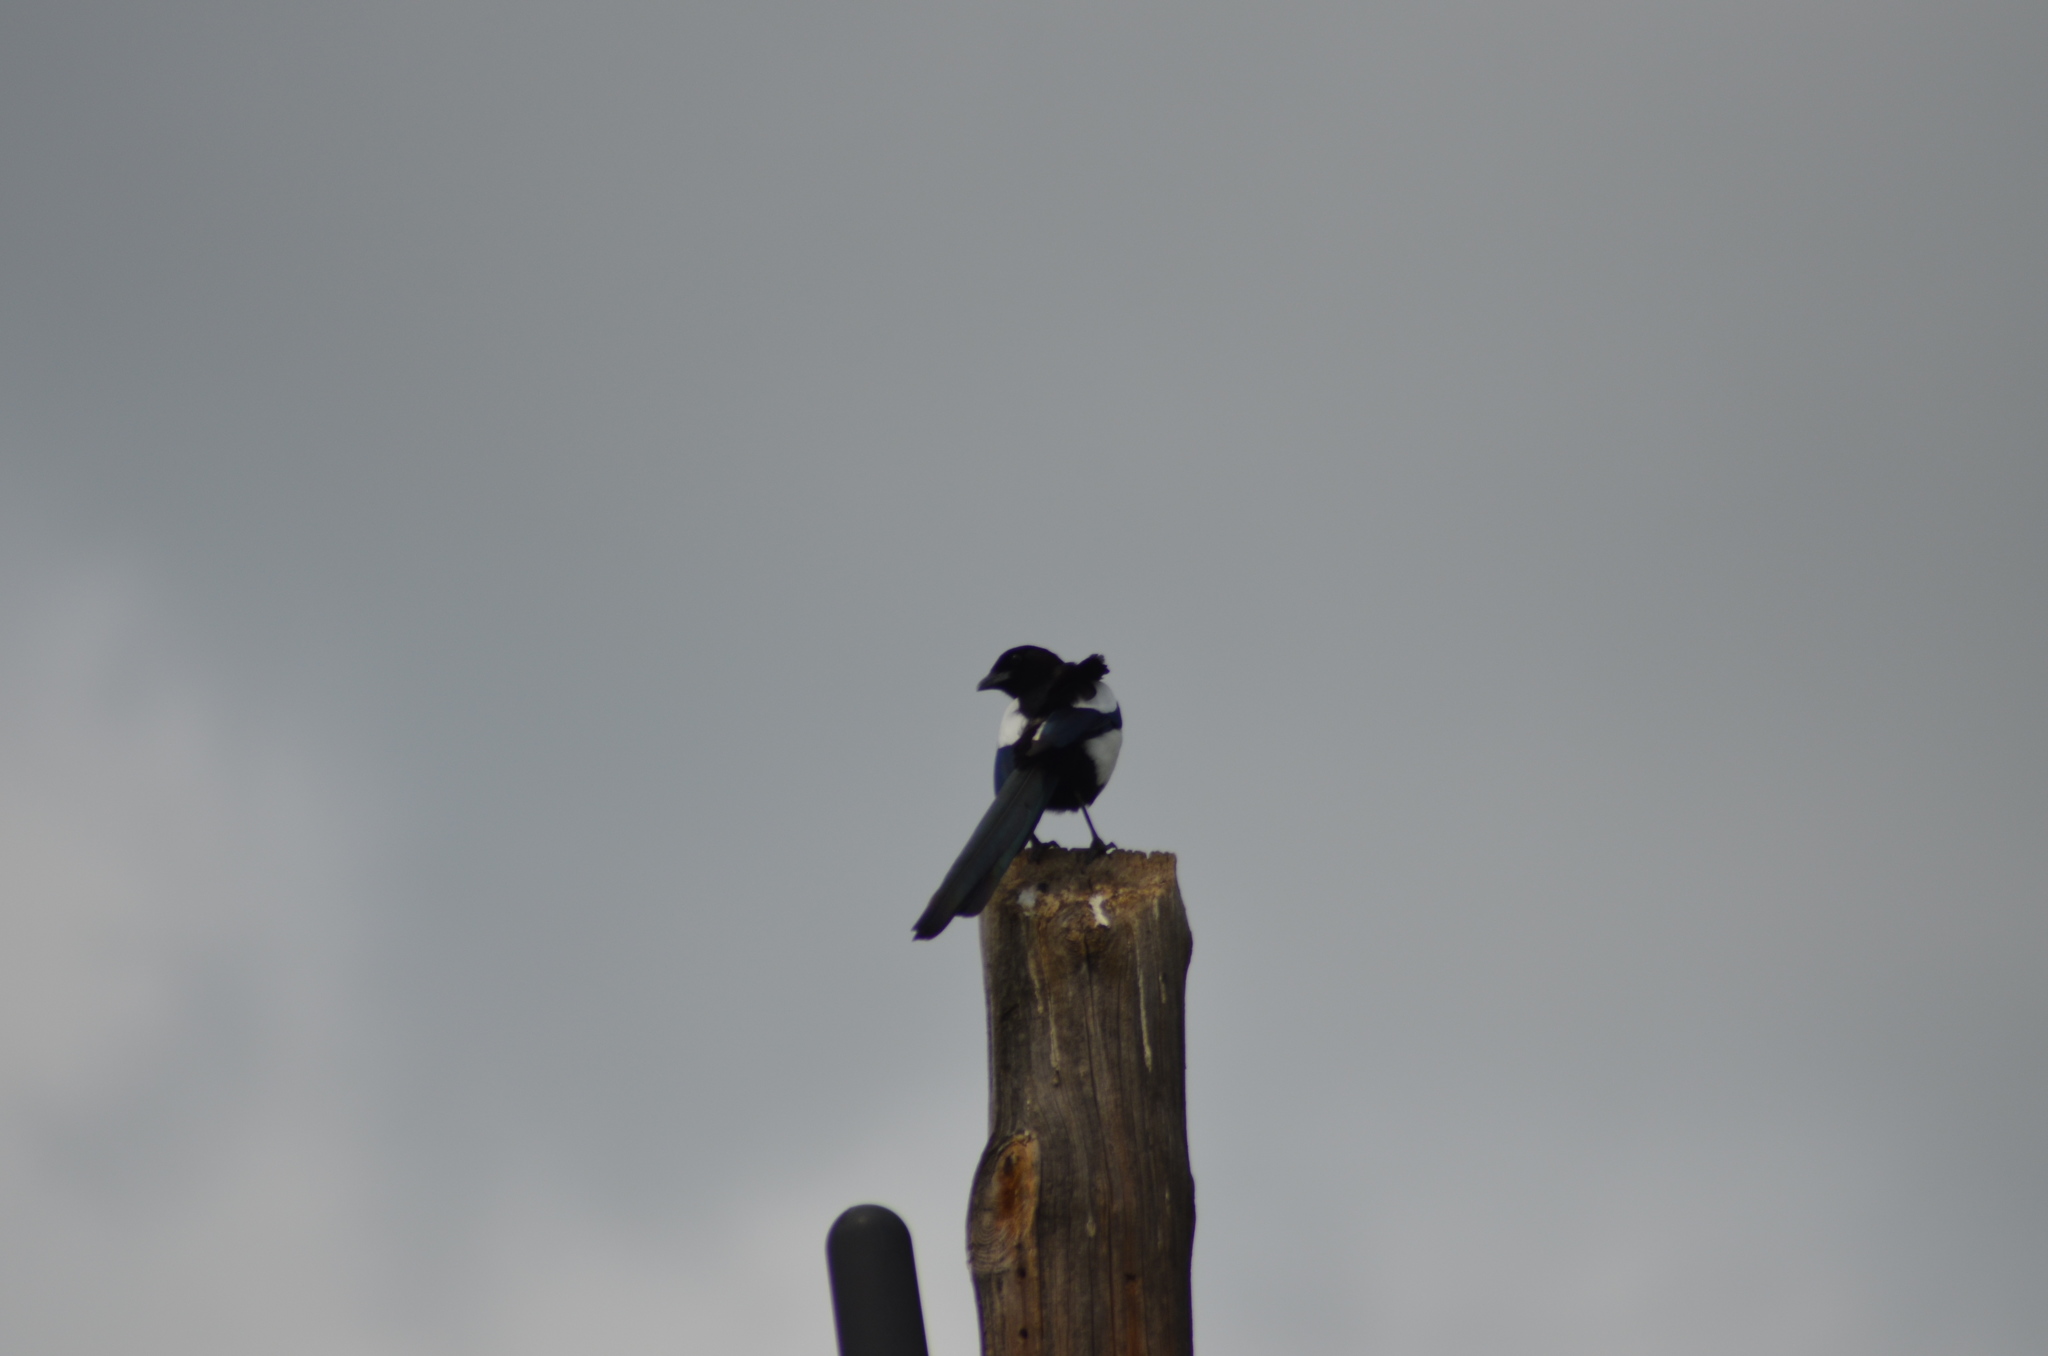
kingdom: Animalia
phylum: Chordata
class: Aves
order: Passeriformes
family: Corvidae
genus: Pica
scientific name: Pica pica
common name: Eurasian magpie
